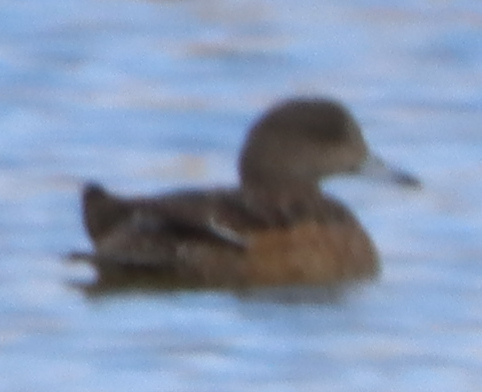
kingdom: Animalia
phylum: Chordata
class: Aves
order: Anseriformes
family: Anatidae
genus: Mareca
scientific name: Mareca americana
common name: American wigeon
